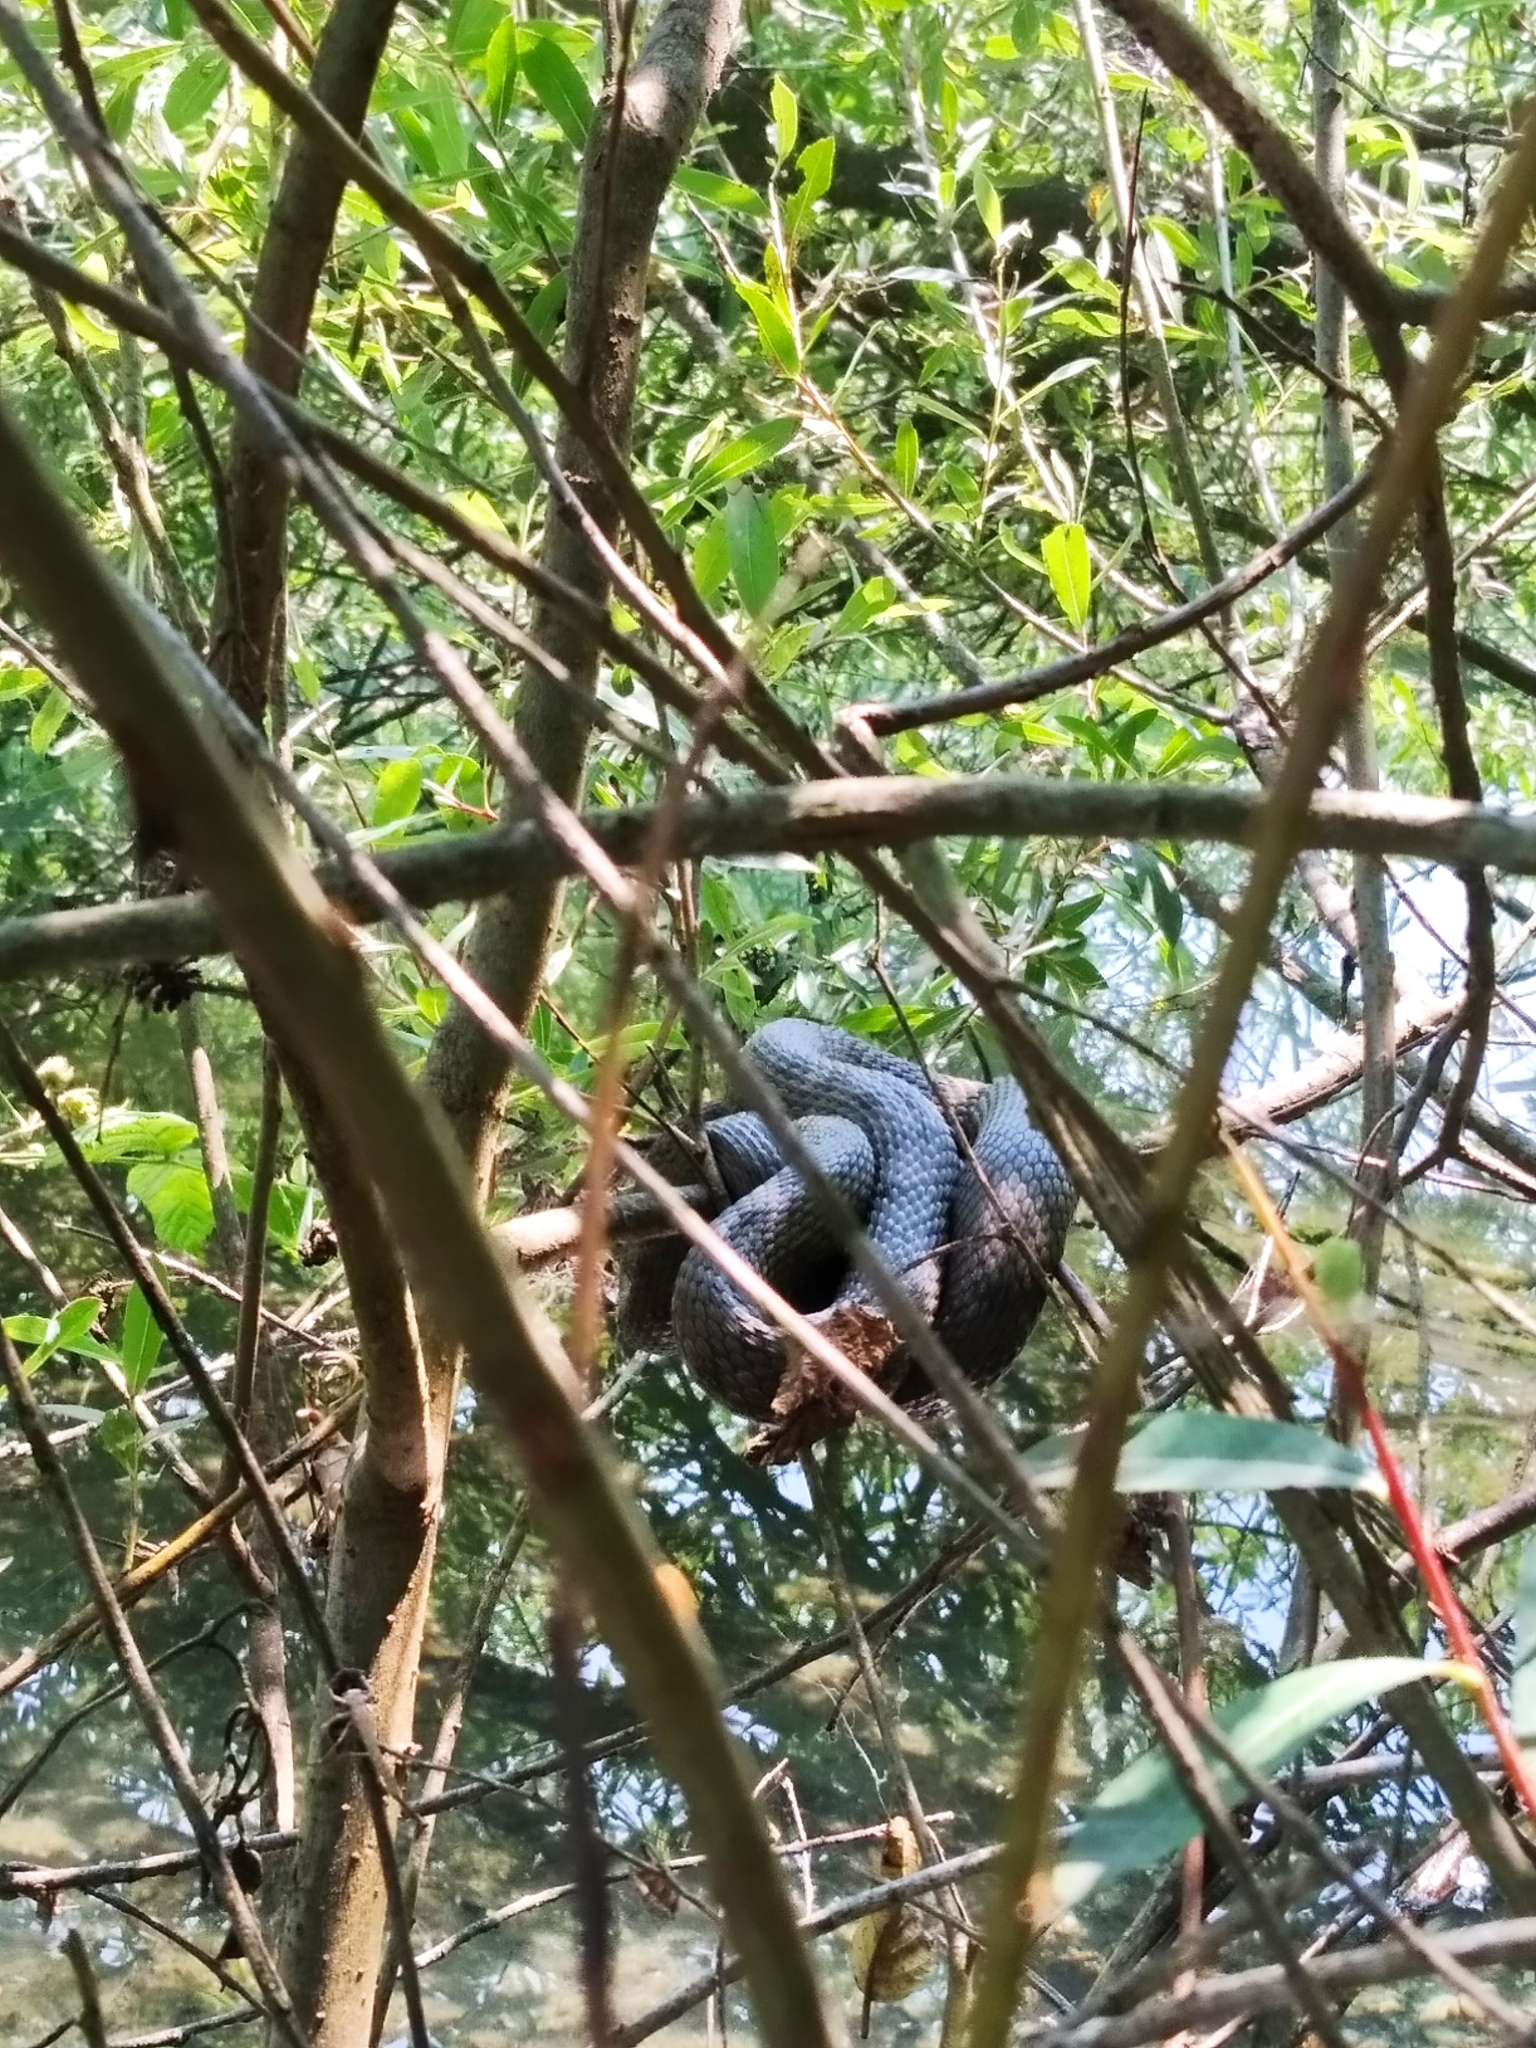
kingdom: Animalia
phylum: Chordata
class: Squamata
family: Colubridae
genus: Natrix
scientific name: Natrix tessellata
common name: Dice snake
